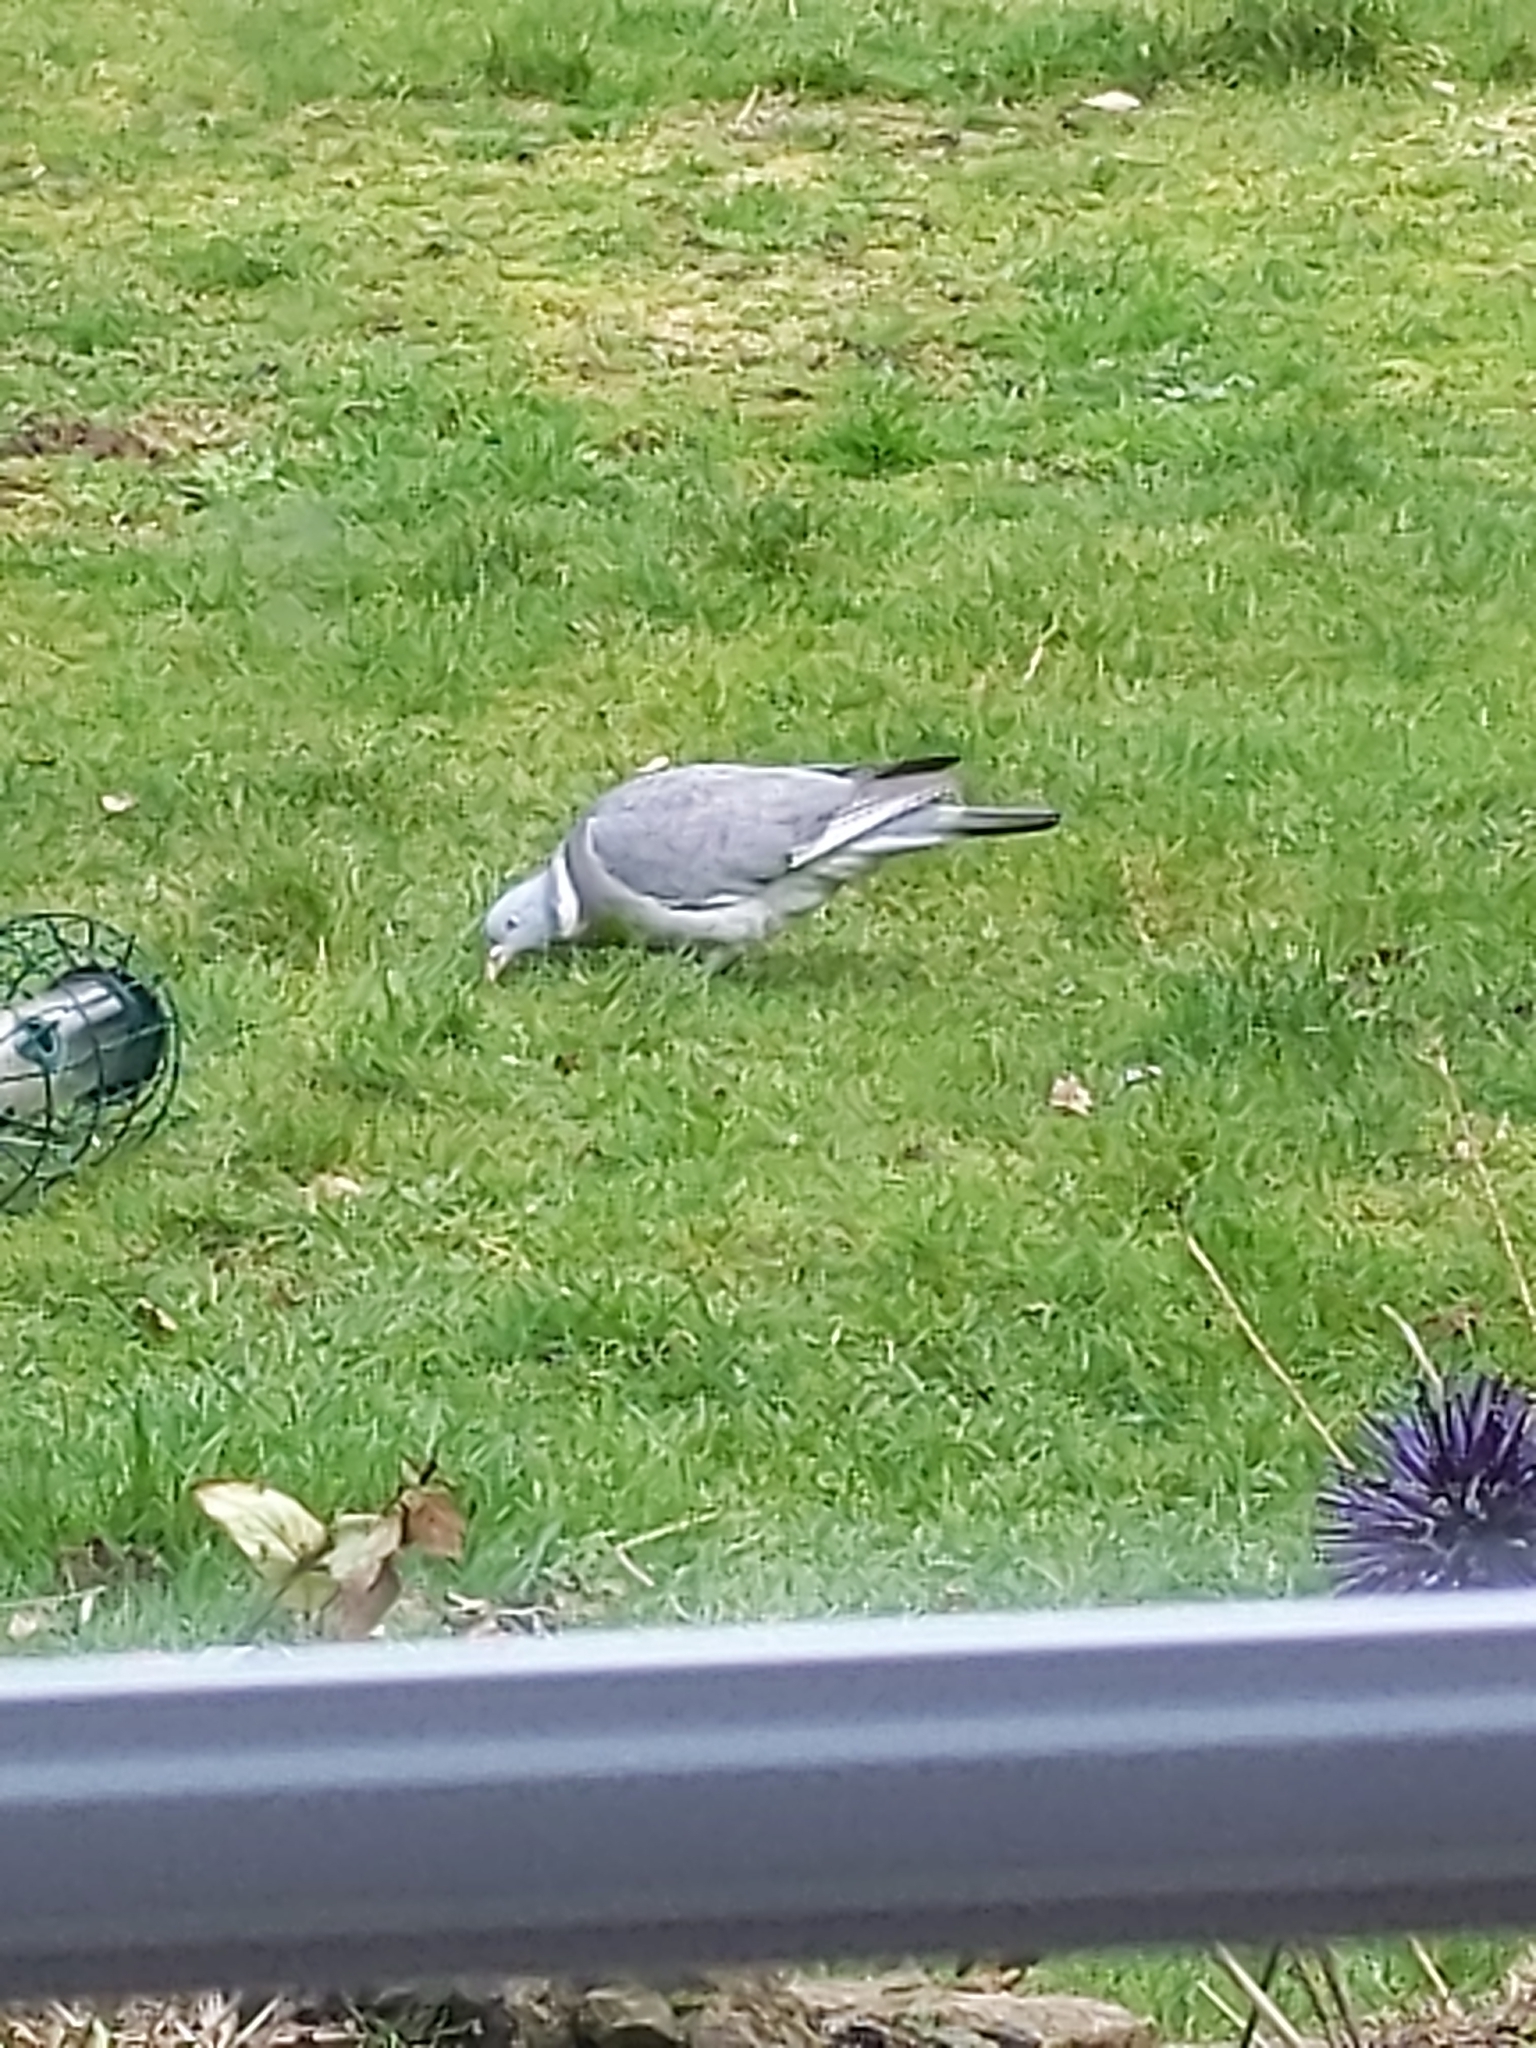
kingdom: Animalia
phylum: Chordata
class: Aves
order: Columbiformes
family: Columbidae
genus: Columba
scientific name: Columba palumbus
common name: Common wood pigeon
